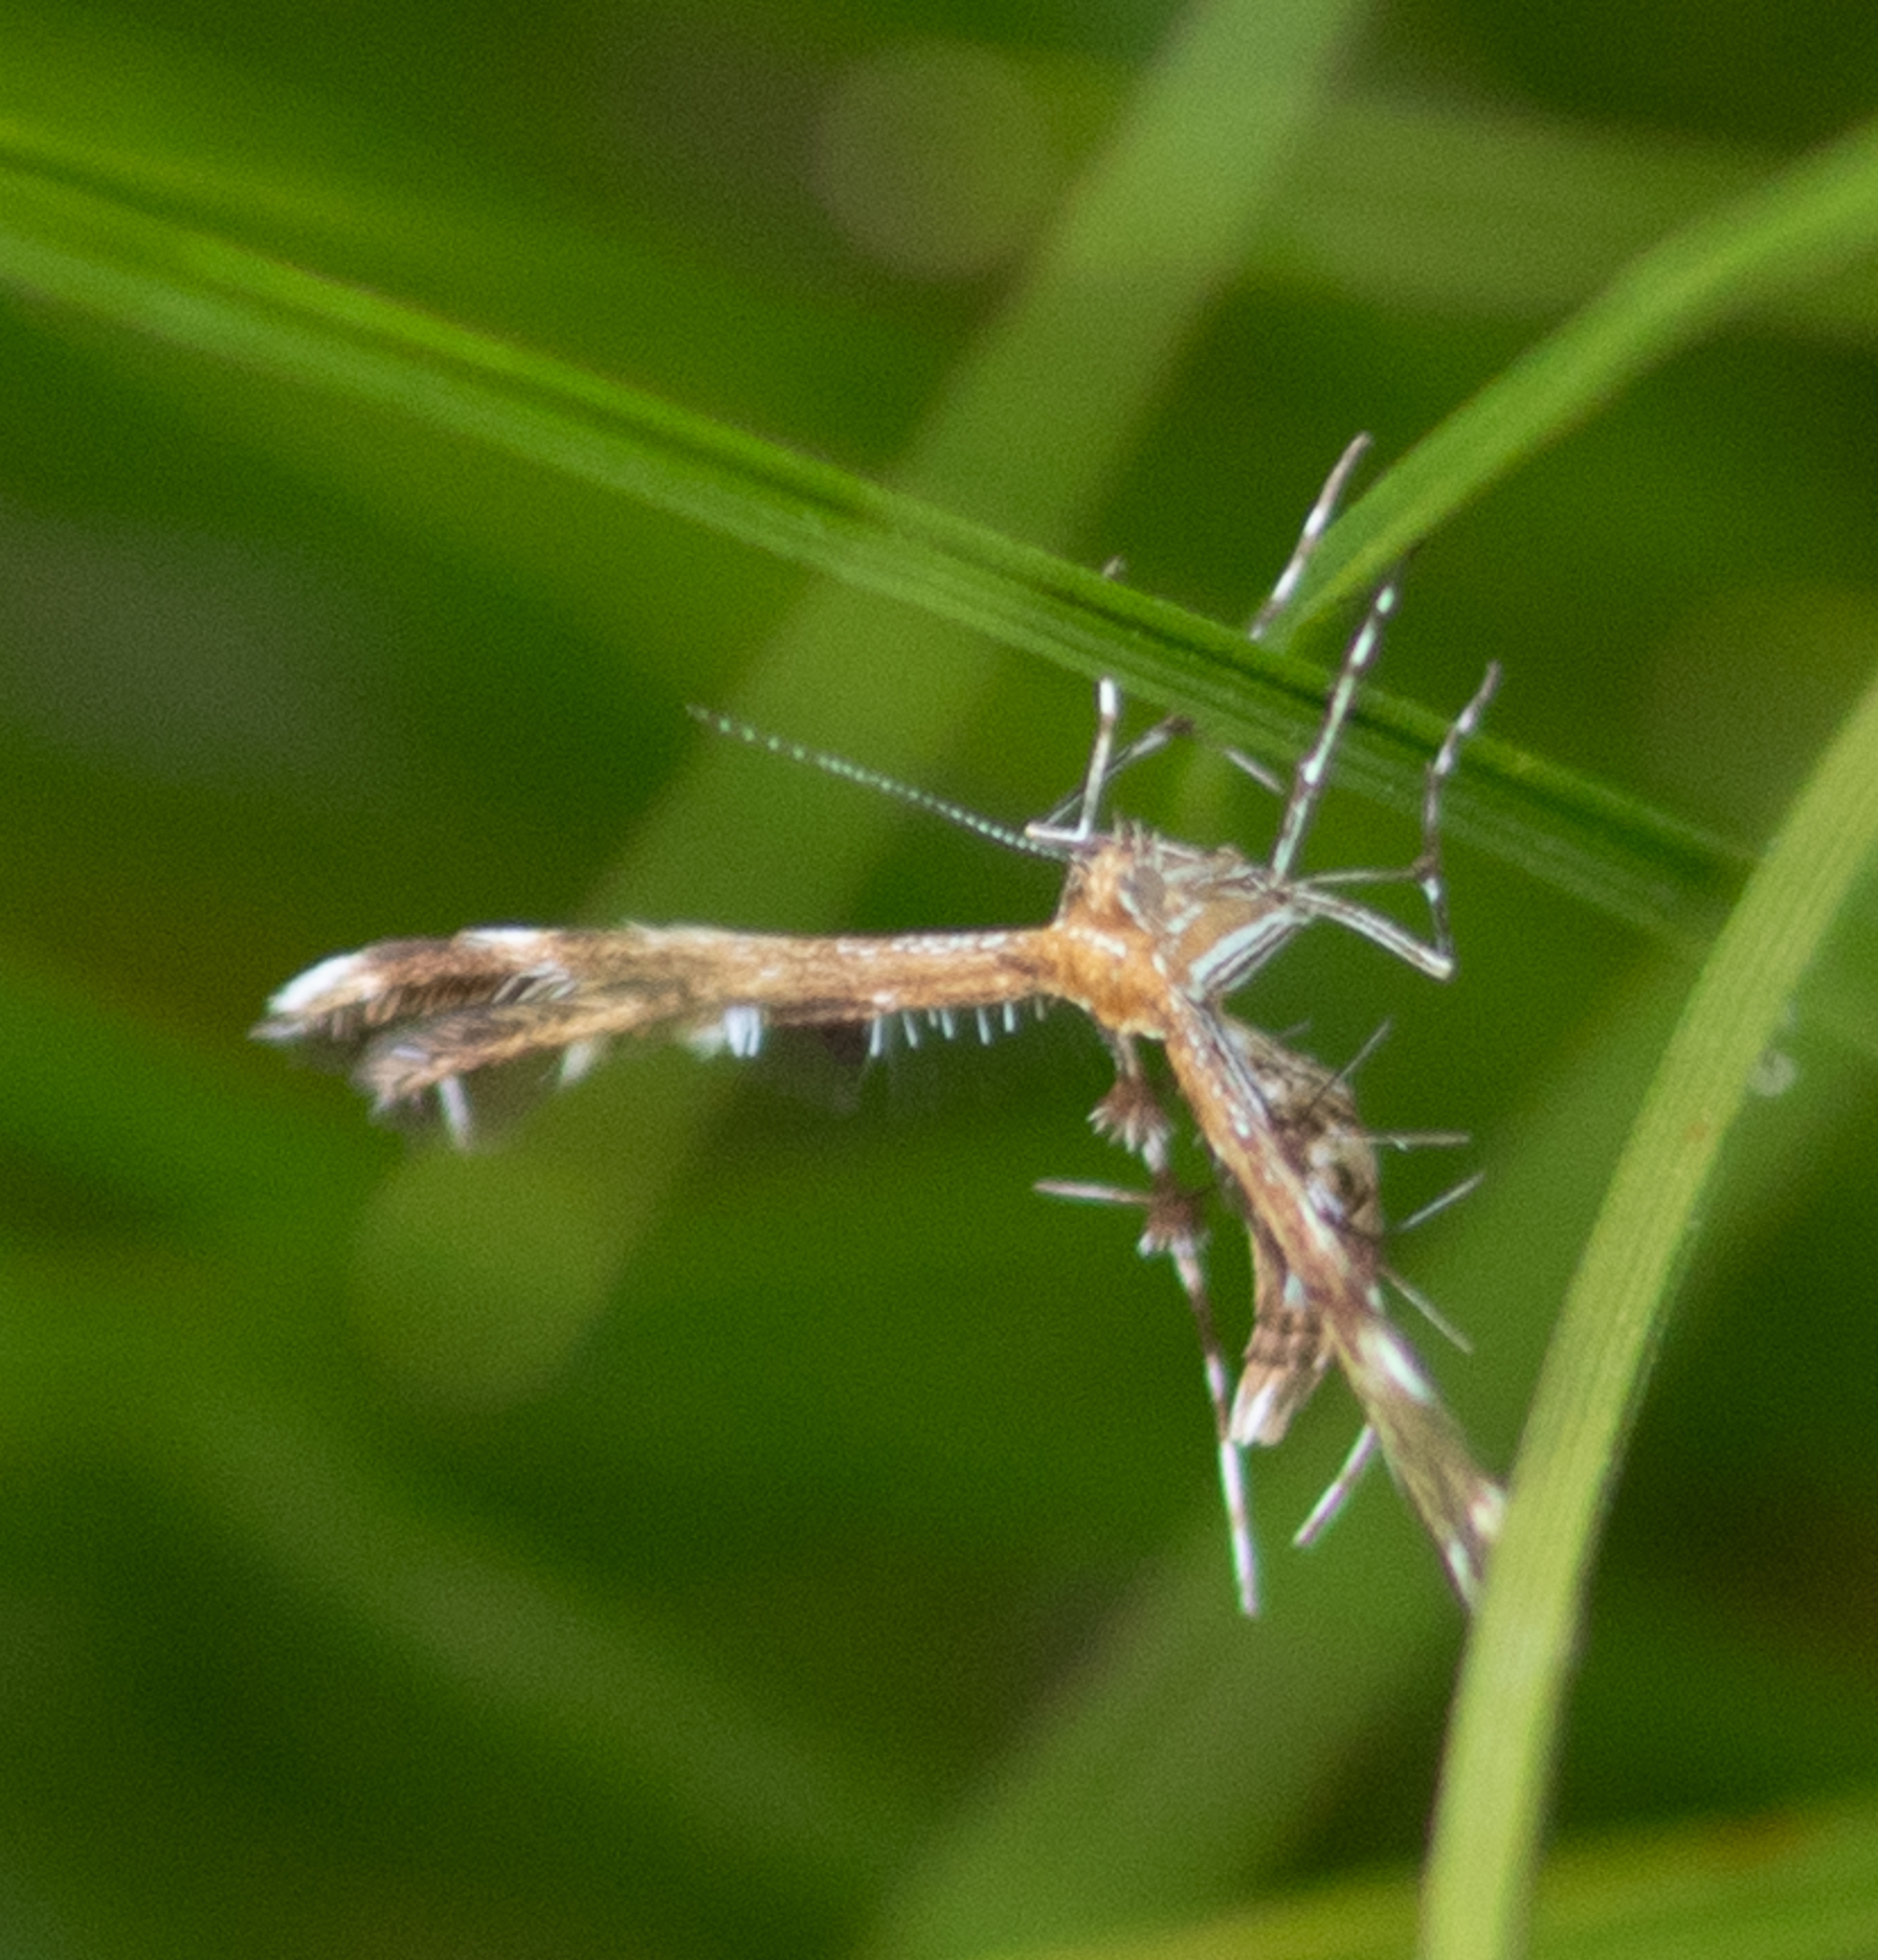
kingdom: Animalia
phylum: Arthropoda
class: Insecta
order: Lepidoptera
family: Pterophoridae
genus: Dejongia
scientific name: Dejongia lobidactylus
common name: Lobed plume moth
